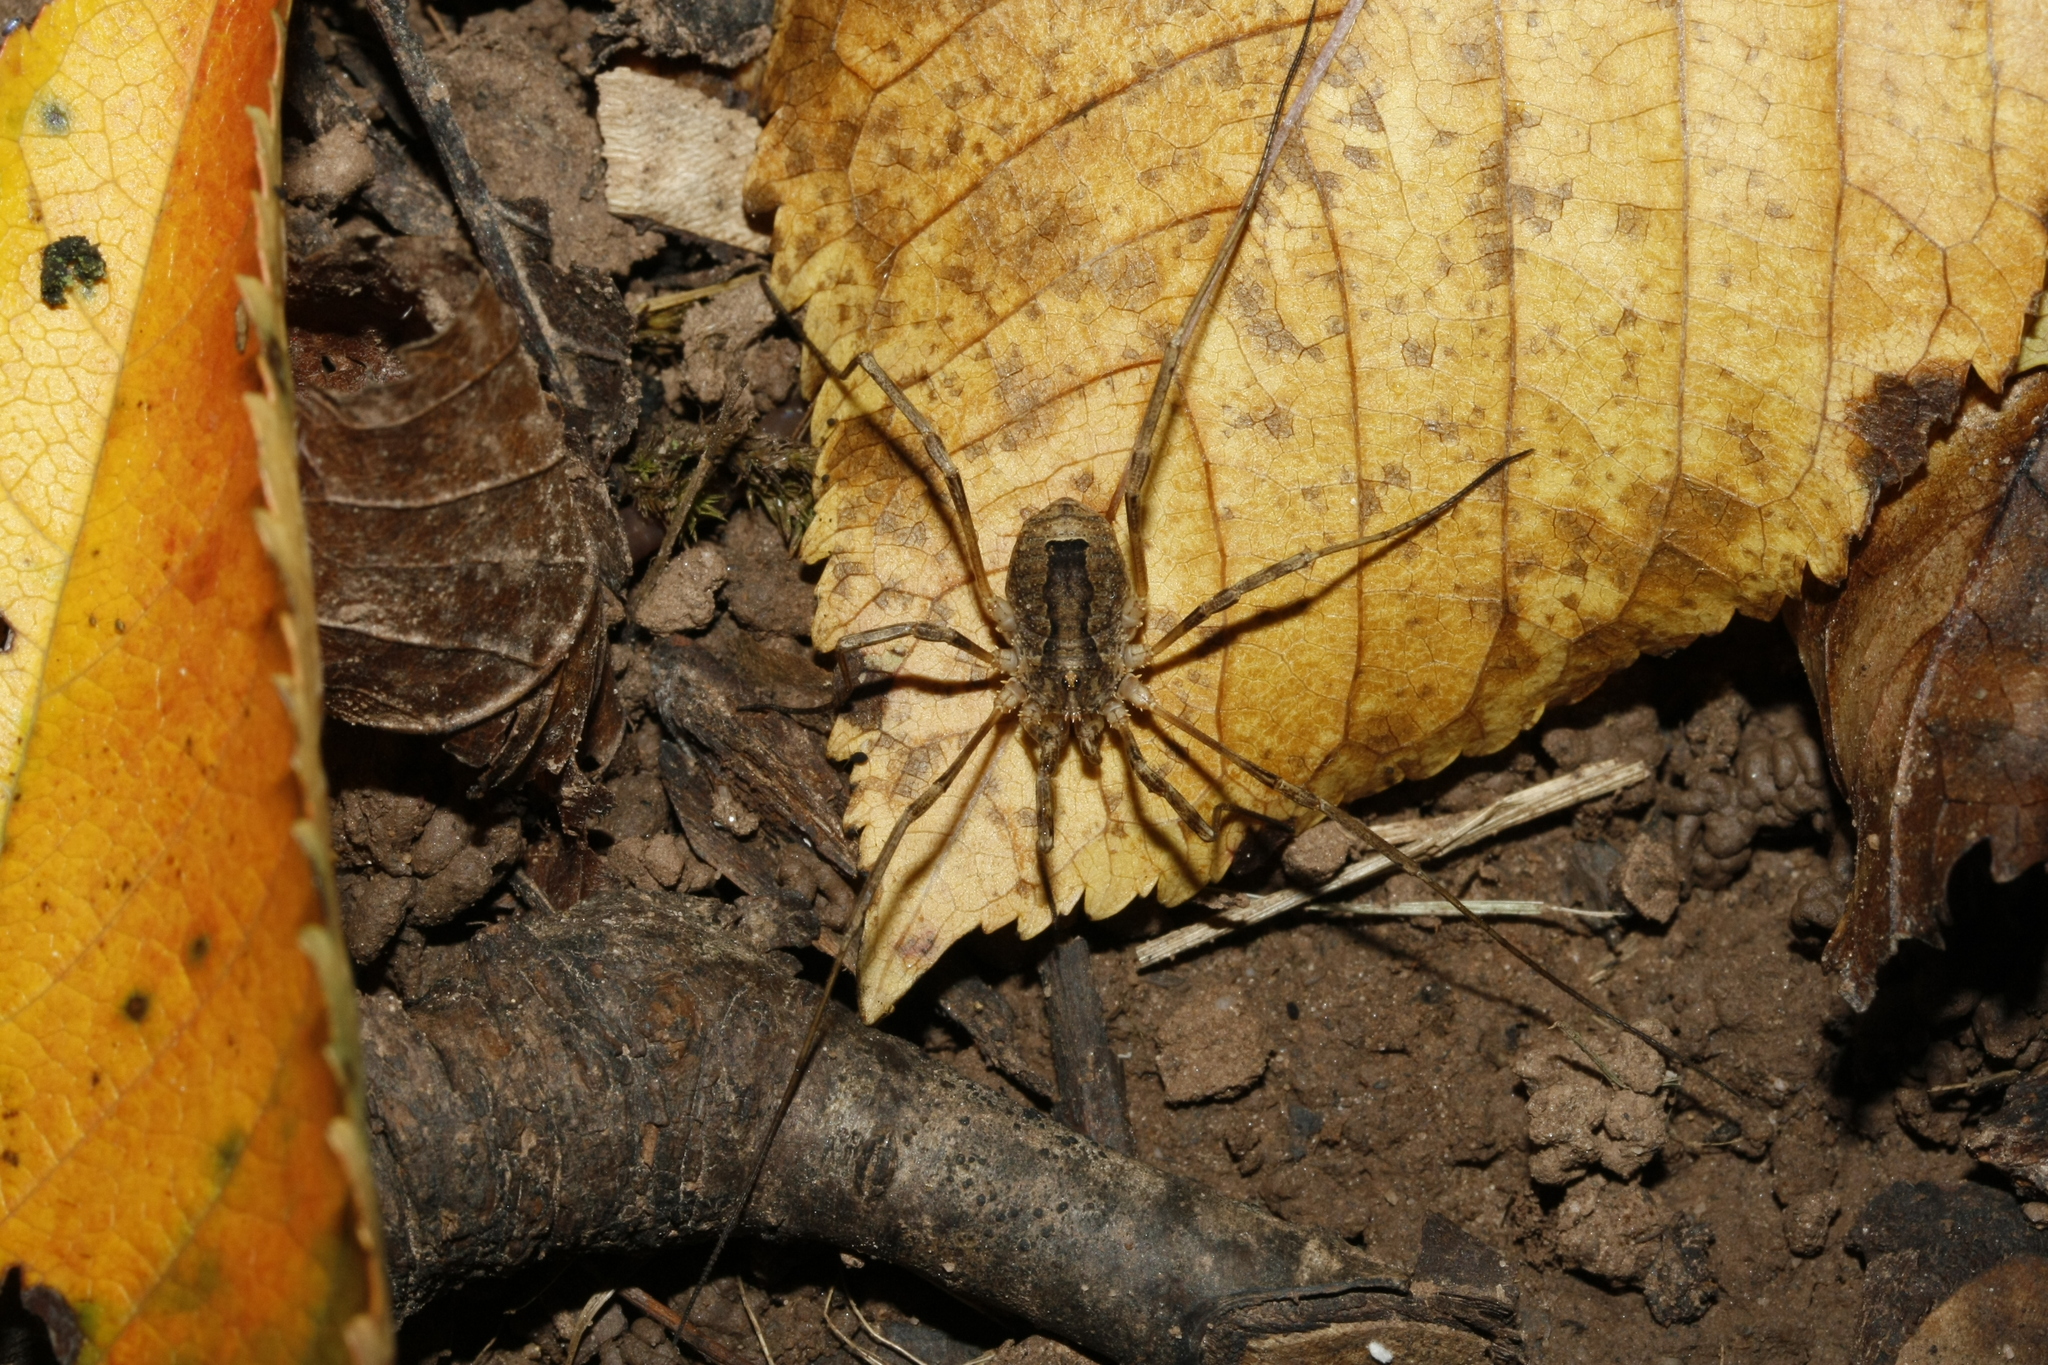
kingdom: Animalia
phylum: Arthropoda
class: Arachnida
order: Opiliones
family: Phalangiidae
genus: Odiellus
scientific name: Odiellus spinosus
